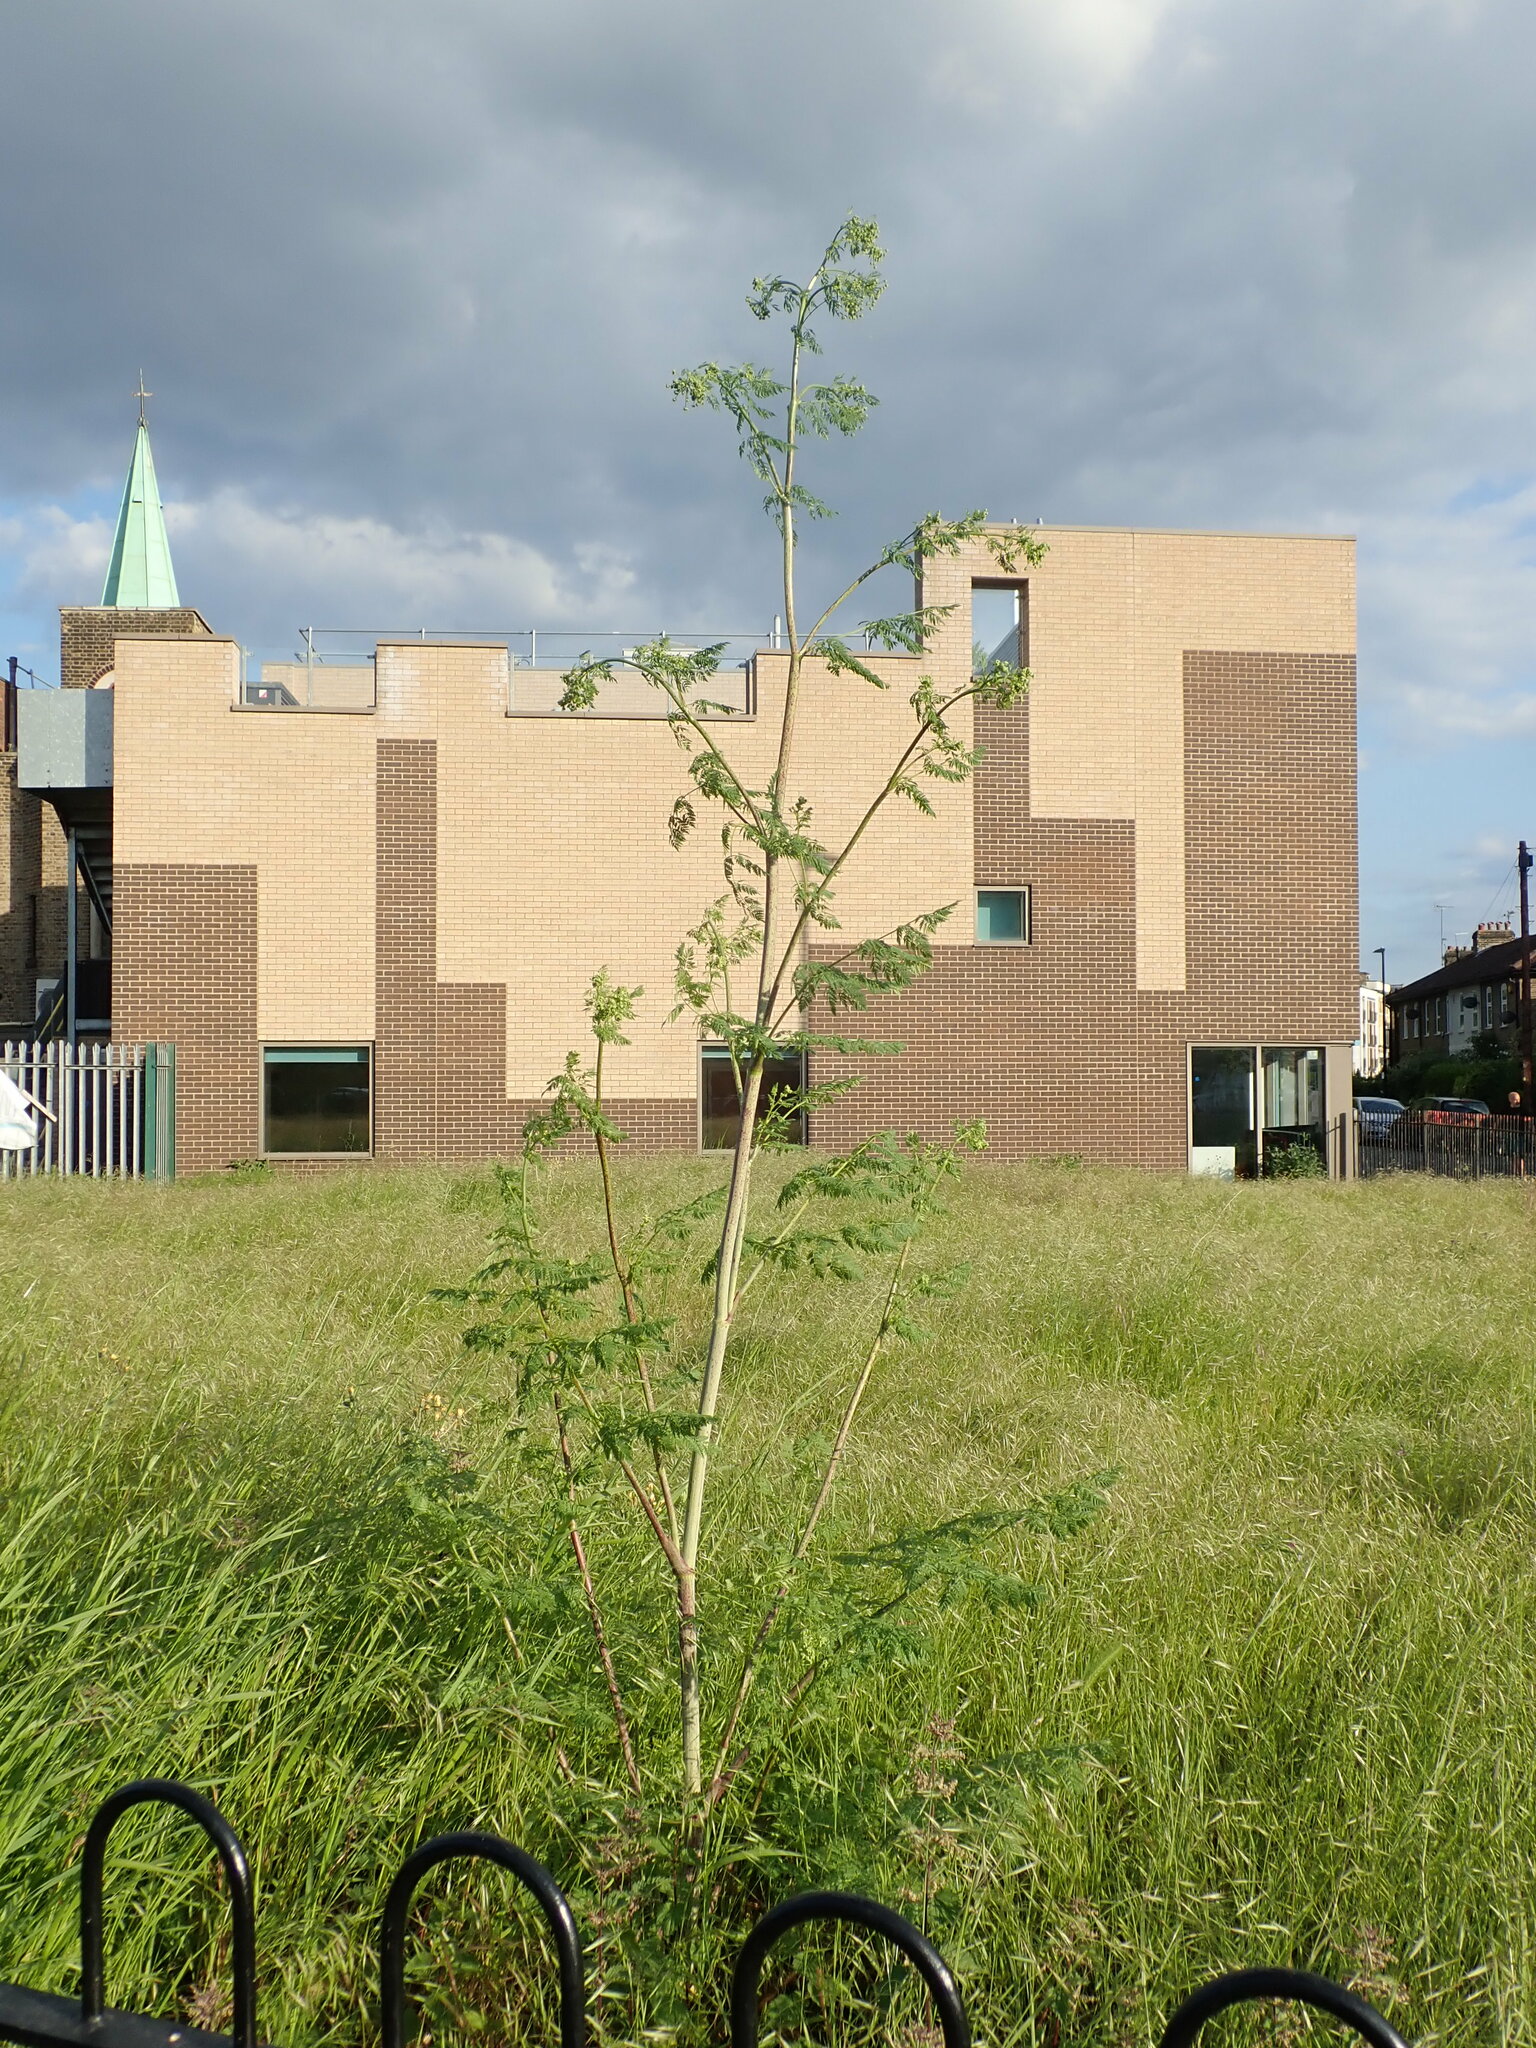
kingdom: Plantae
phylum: Tracheophyta
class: Magnoliopsida
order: Apiales
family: Apiaceae
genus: Conium
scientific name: Conium maculatum
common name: Hemlock
